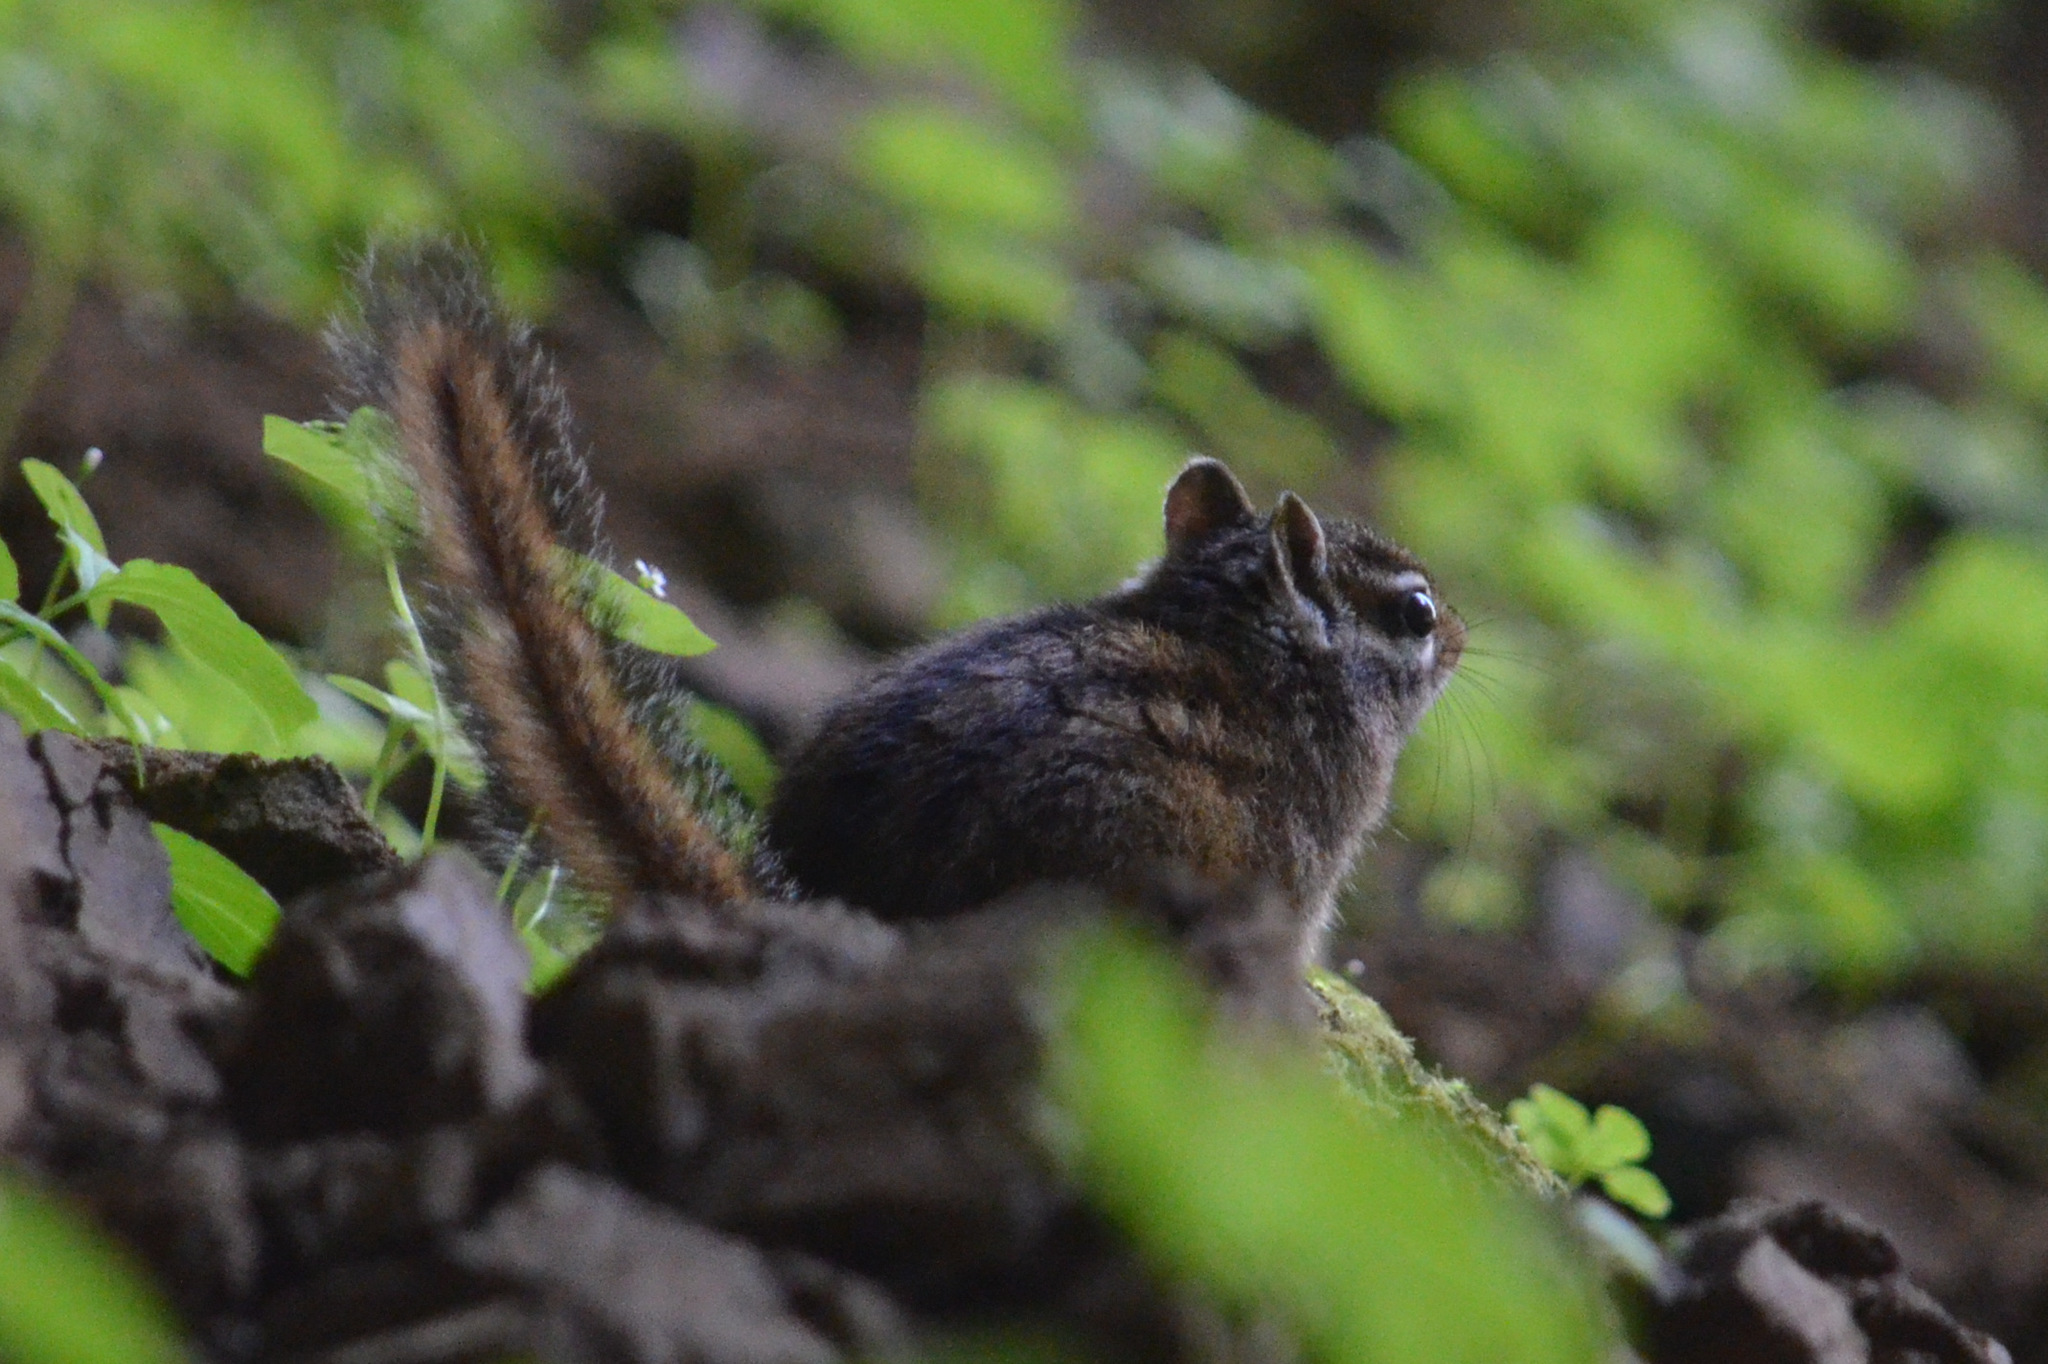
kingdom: Animalia
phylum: Chordata
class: Mammalia
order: Rodentia
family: Sciuridae
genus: Tamias
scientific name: Tamias townsendii
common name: Townsend's chipmunk
